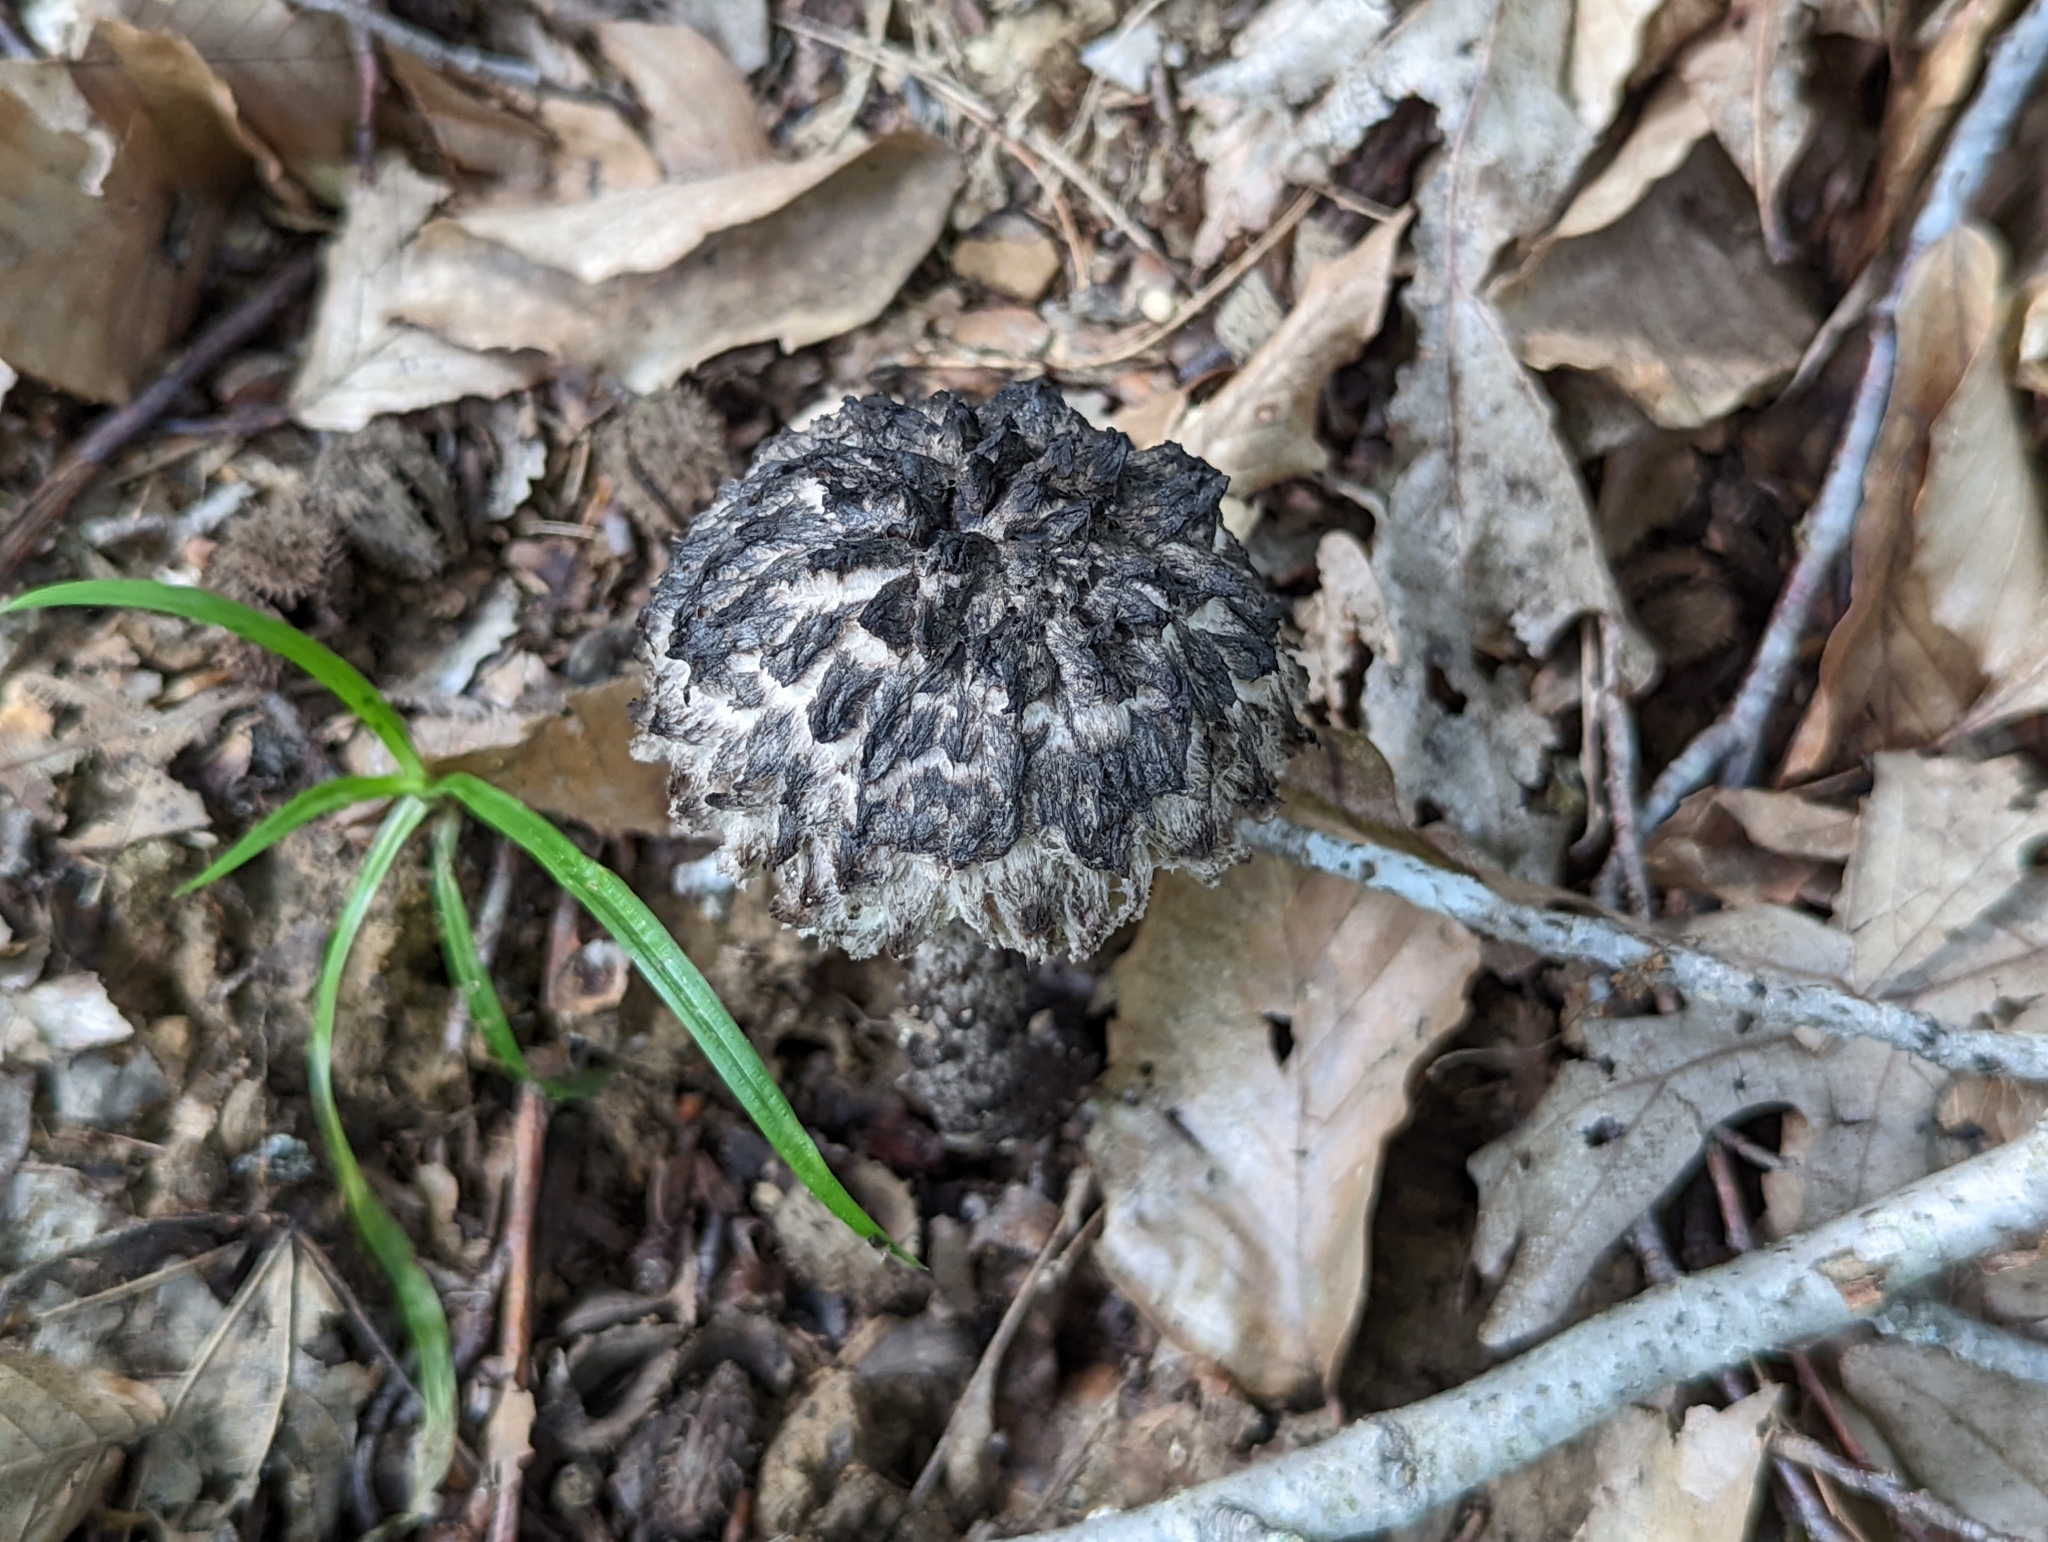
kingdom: Fungi
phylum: Basidiomycota
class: Agaricomycetes
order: Boletales
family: Boletaceae
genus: Strobilomyces
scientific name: Strobilomyces confusus
